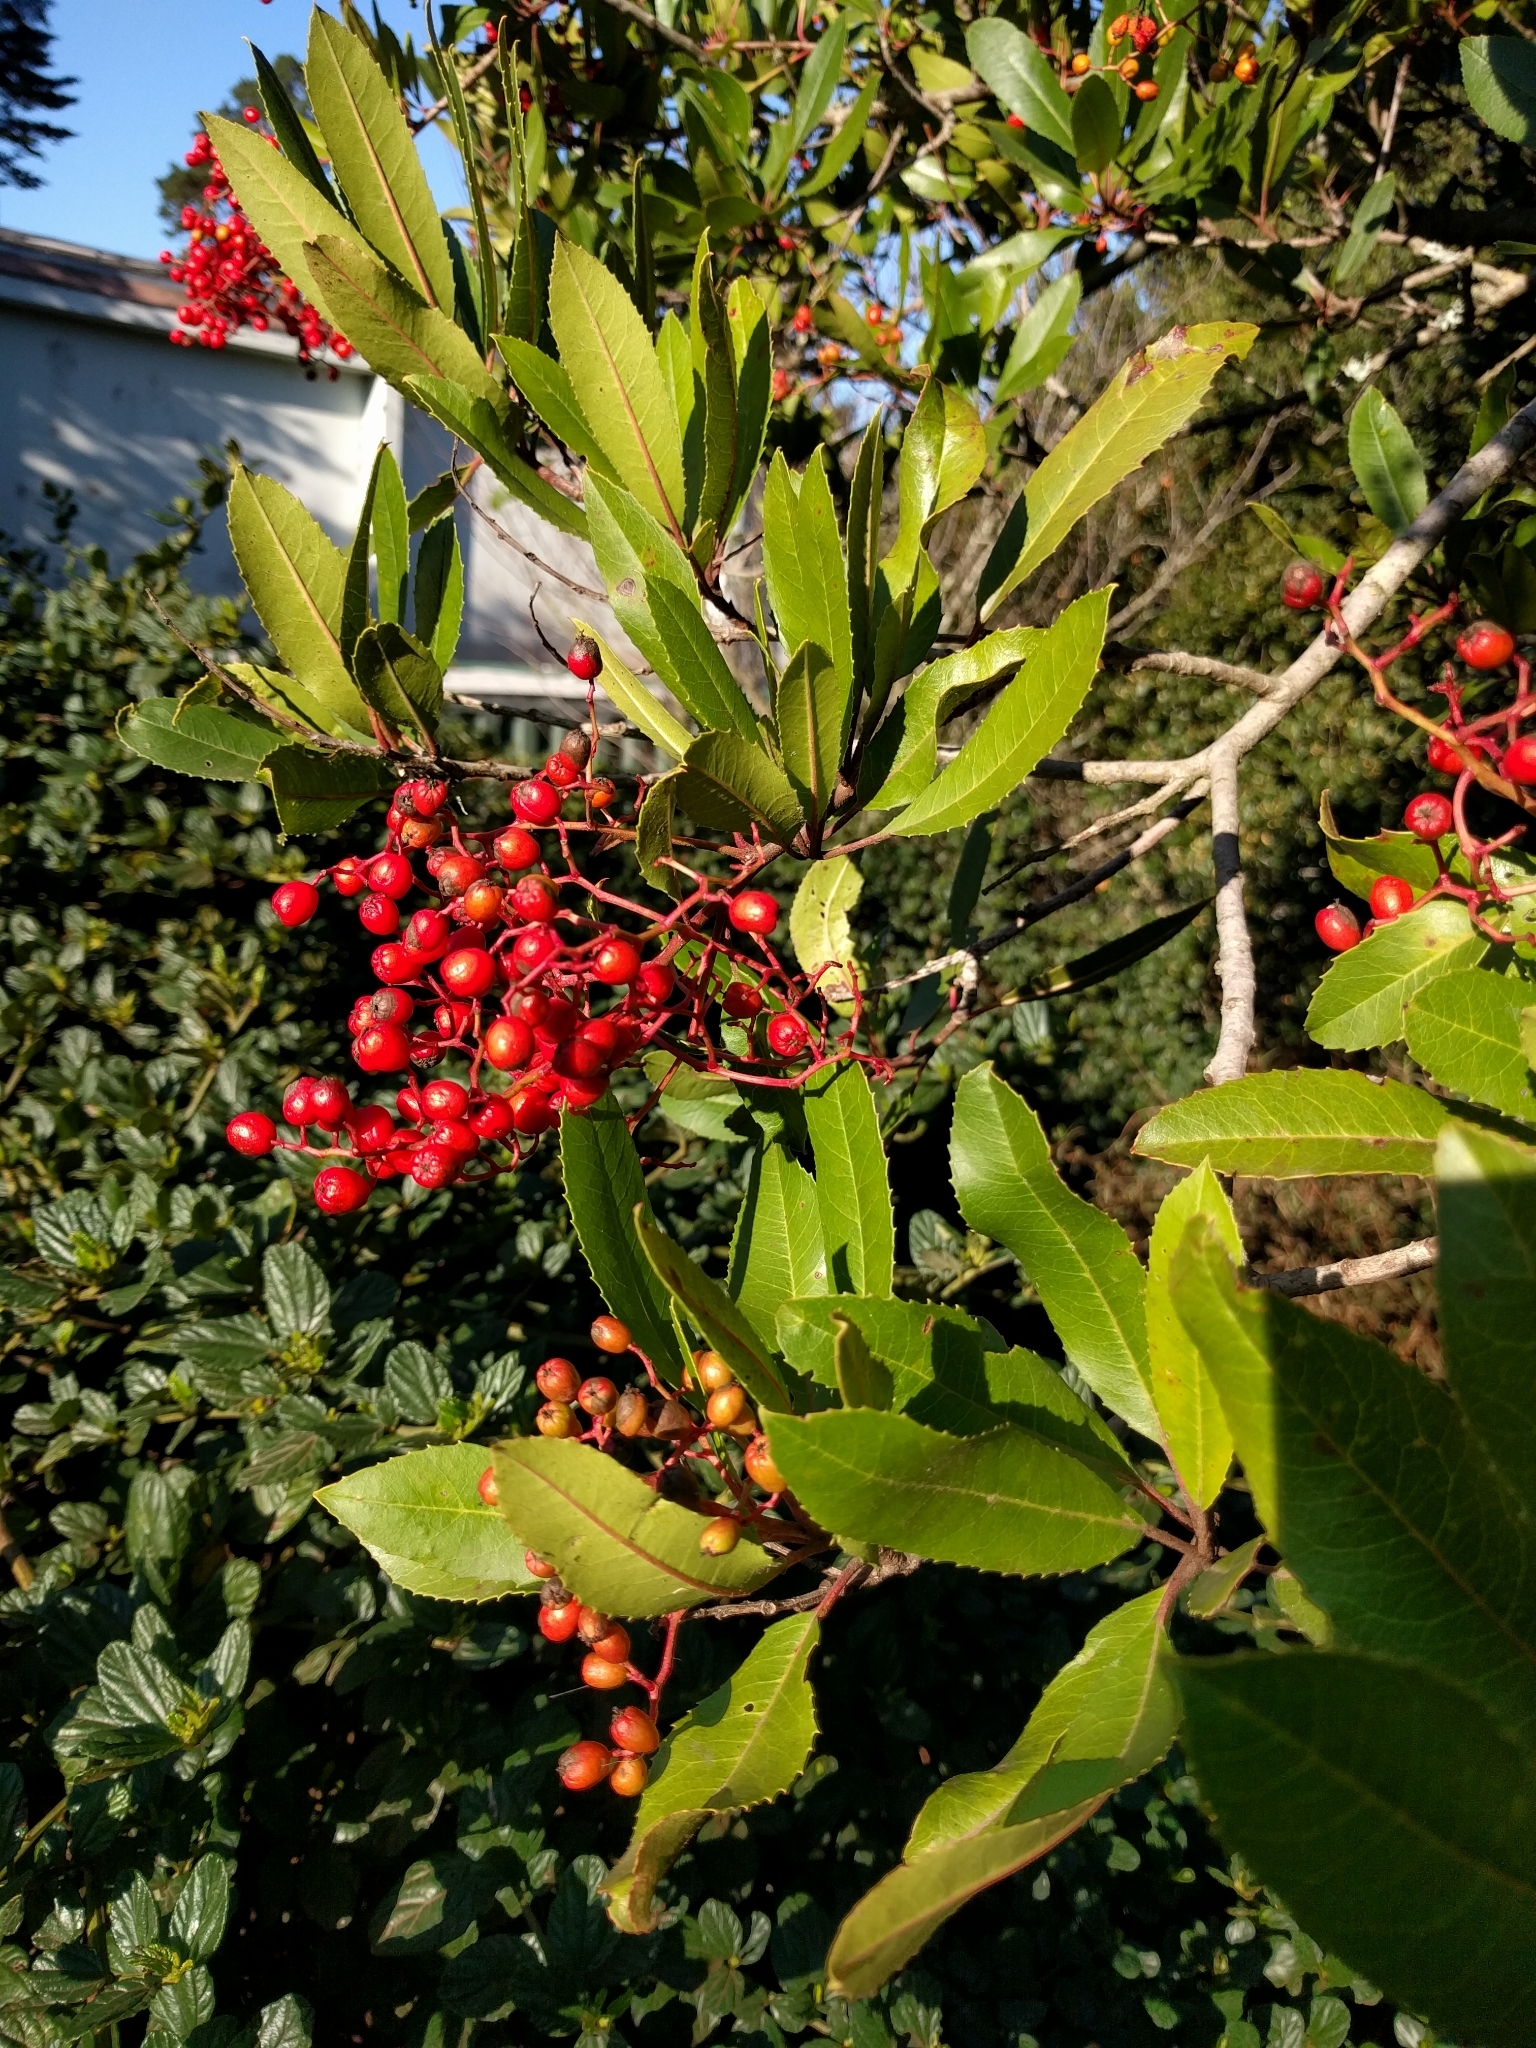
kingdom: Plantae
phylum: Tracheophyta
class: Magnoliopsida
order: Rosales
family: Rosaceae
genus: Heteromeles
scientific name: Heteromeles arbutifolia
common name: California-holly
